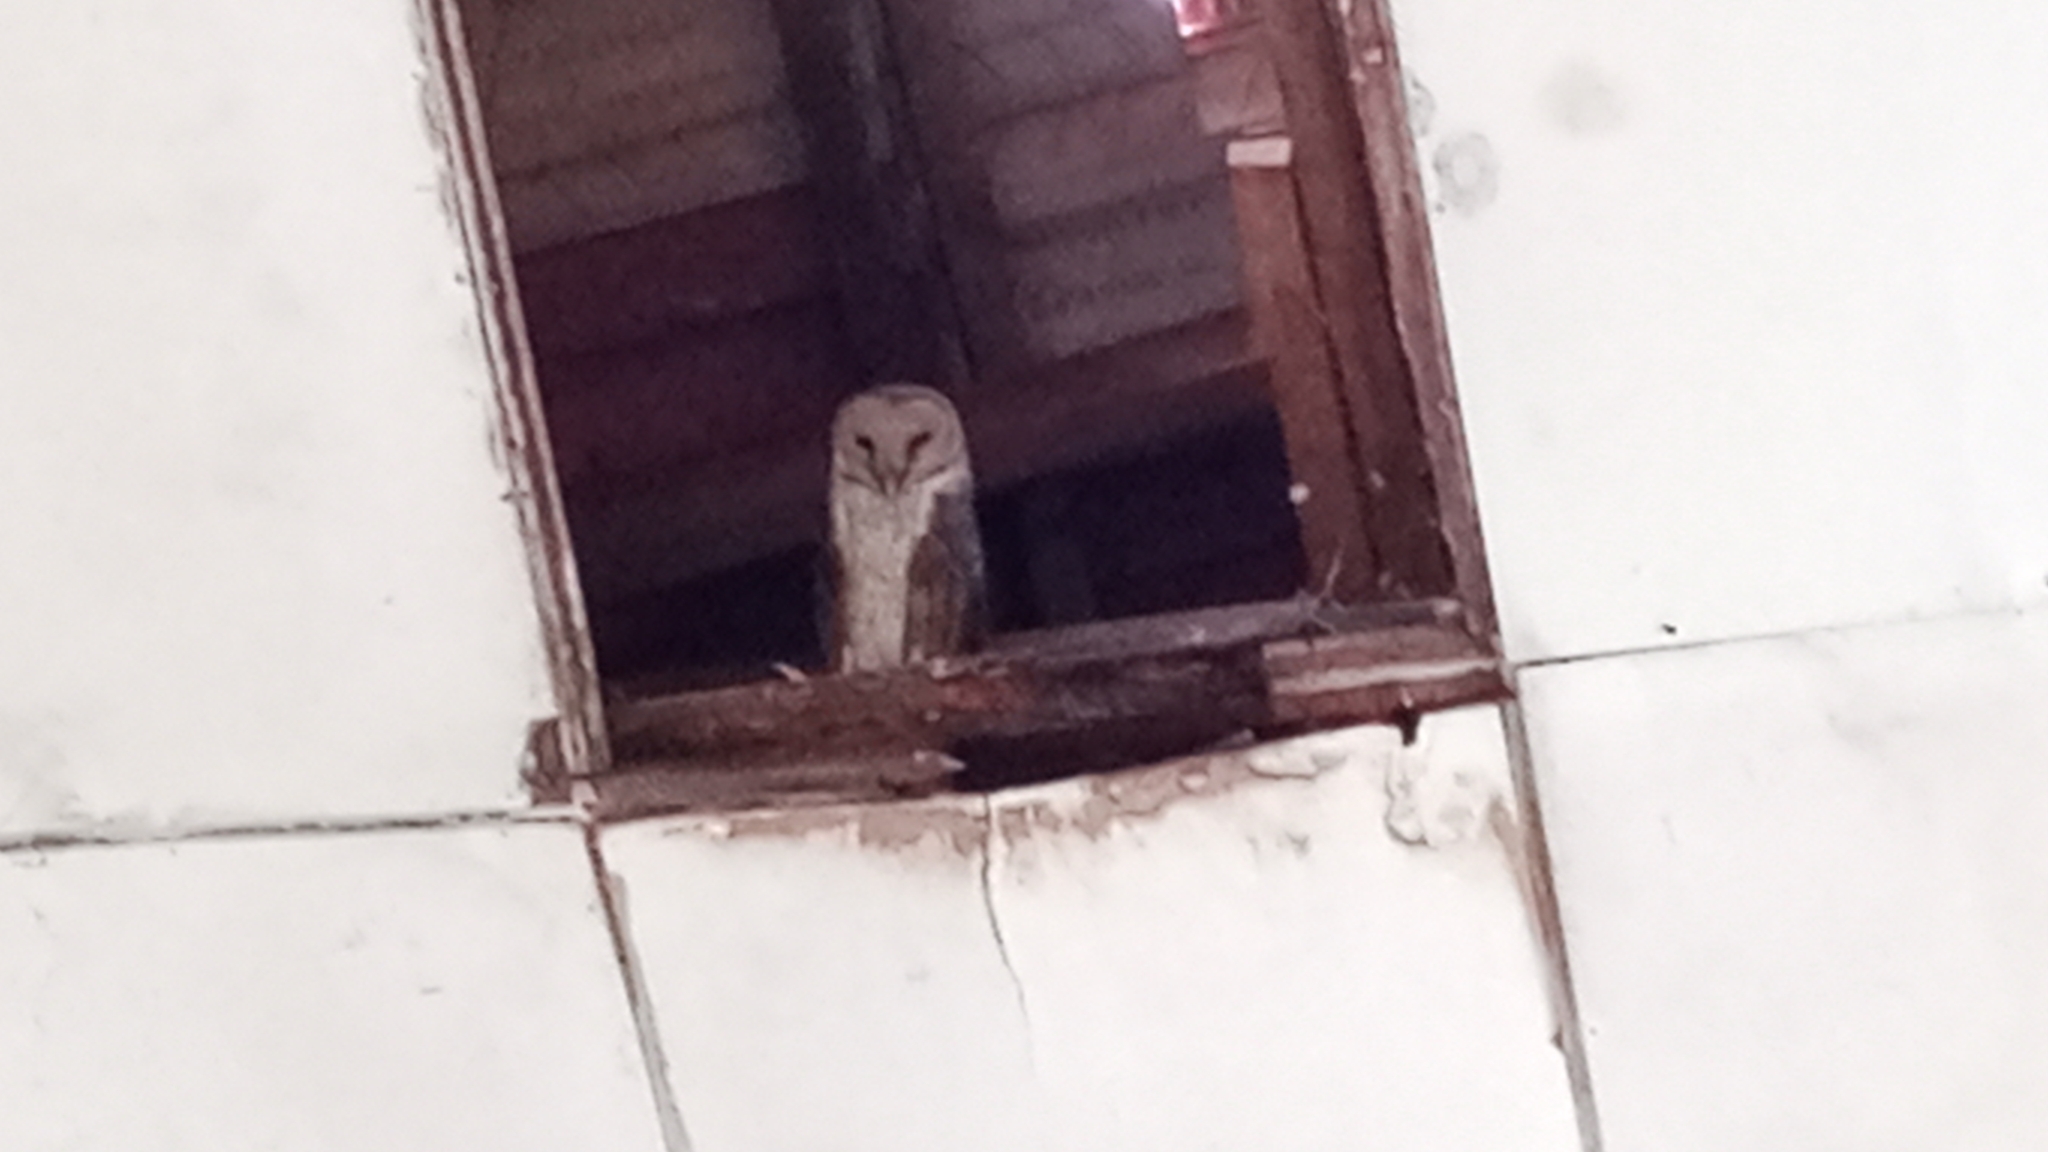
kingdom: Animalia
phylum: Chordata
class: Aves
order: Strigiformes
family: Tytonidae
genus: Tyto
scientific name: Tyto alba
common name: Barn owl
